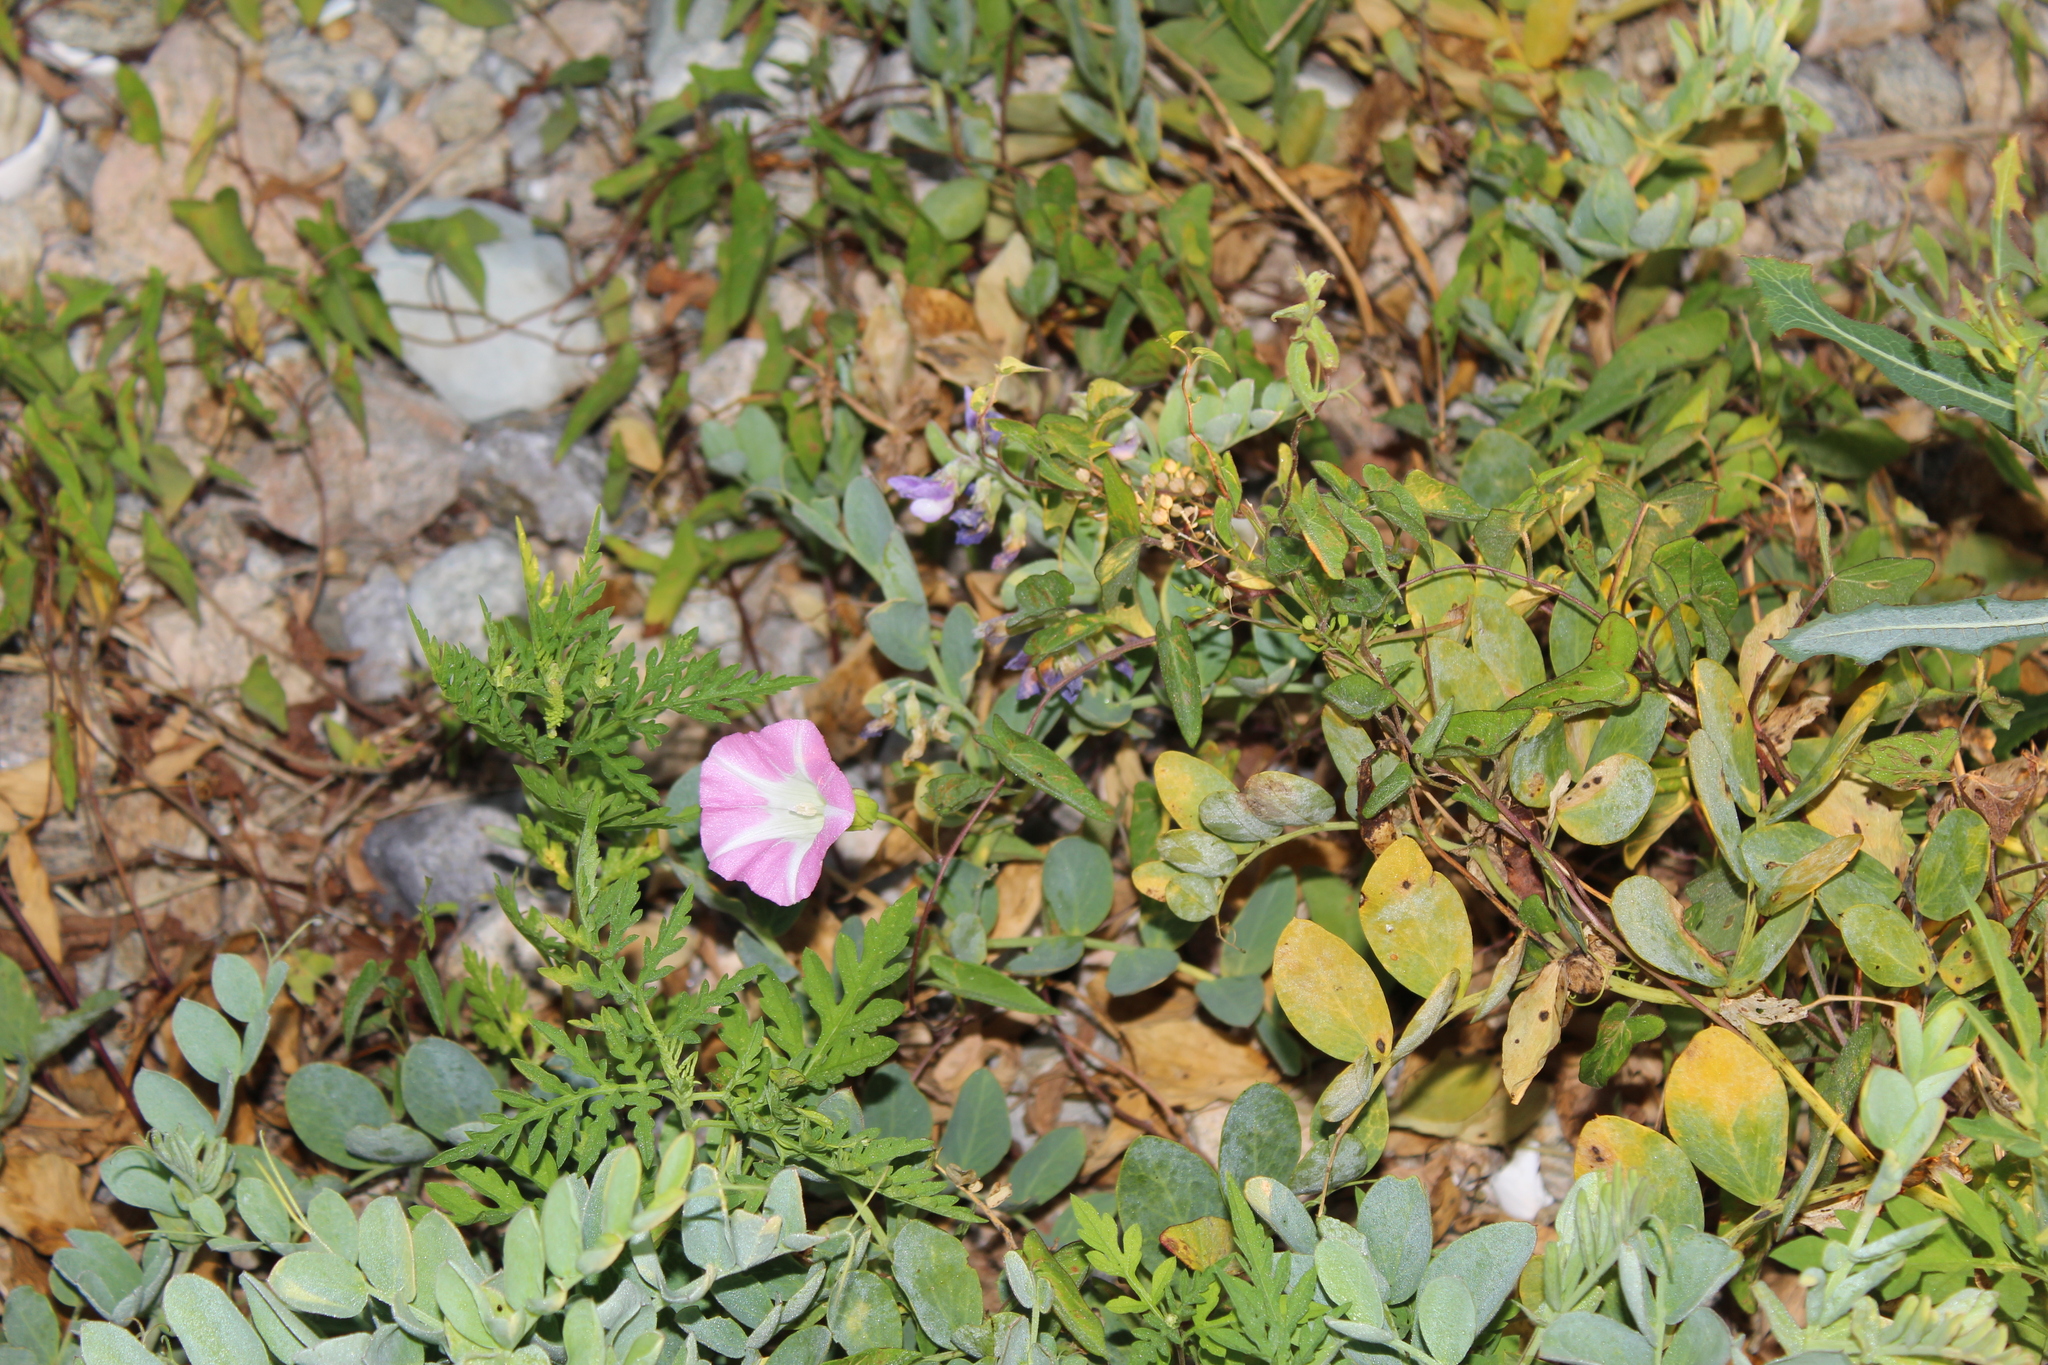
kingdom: Plantae
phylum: Tracheophyta
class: Magnoliopsida
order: Solanales
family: Convolvulaceae
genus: Convolvulus
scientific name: Convolvulus arvensis
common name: Field bindweed
